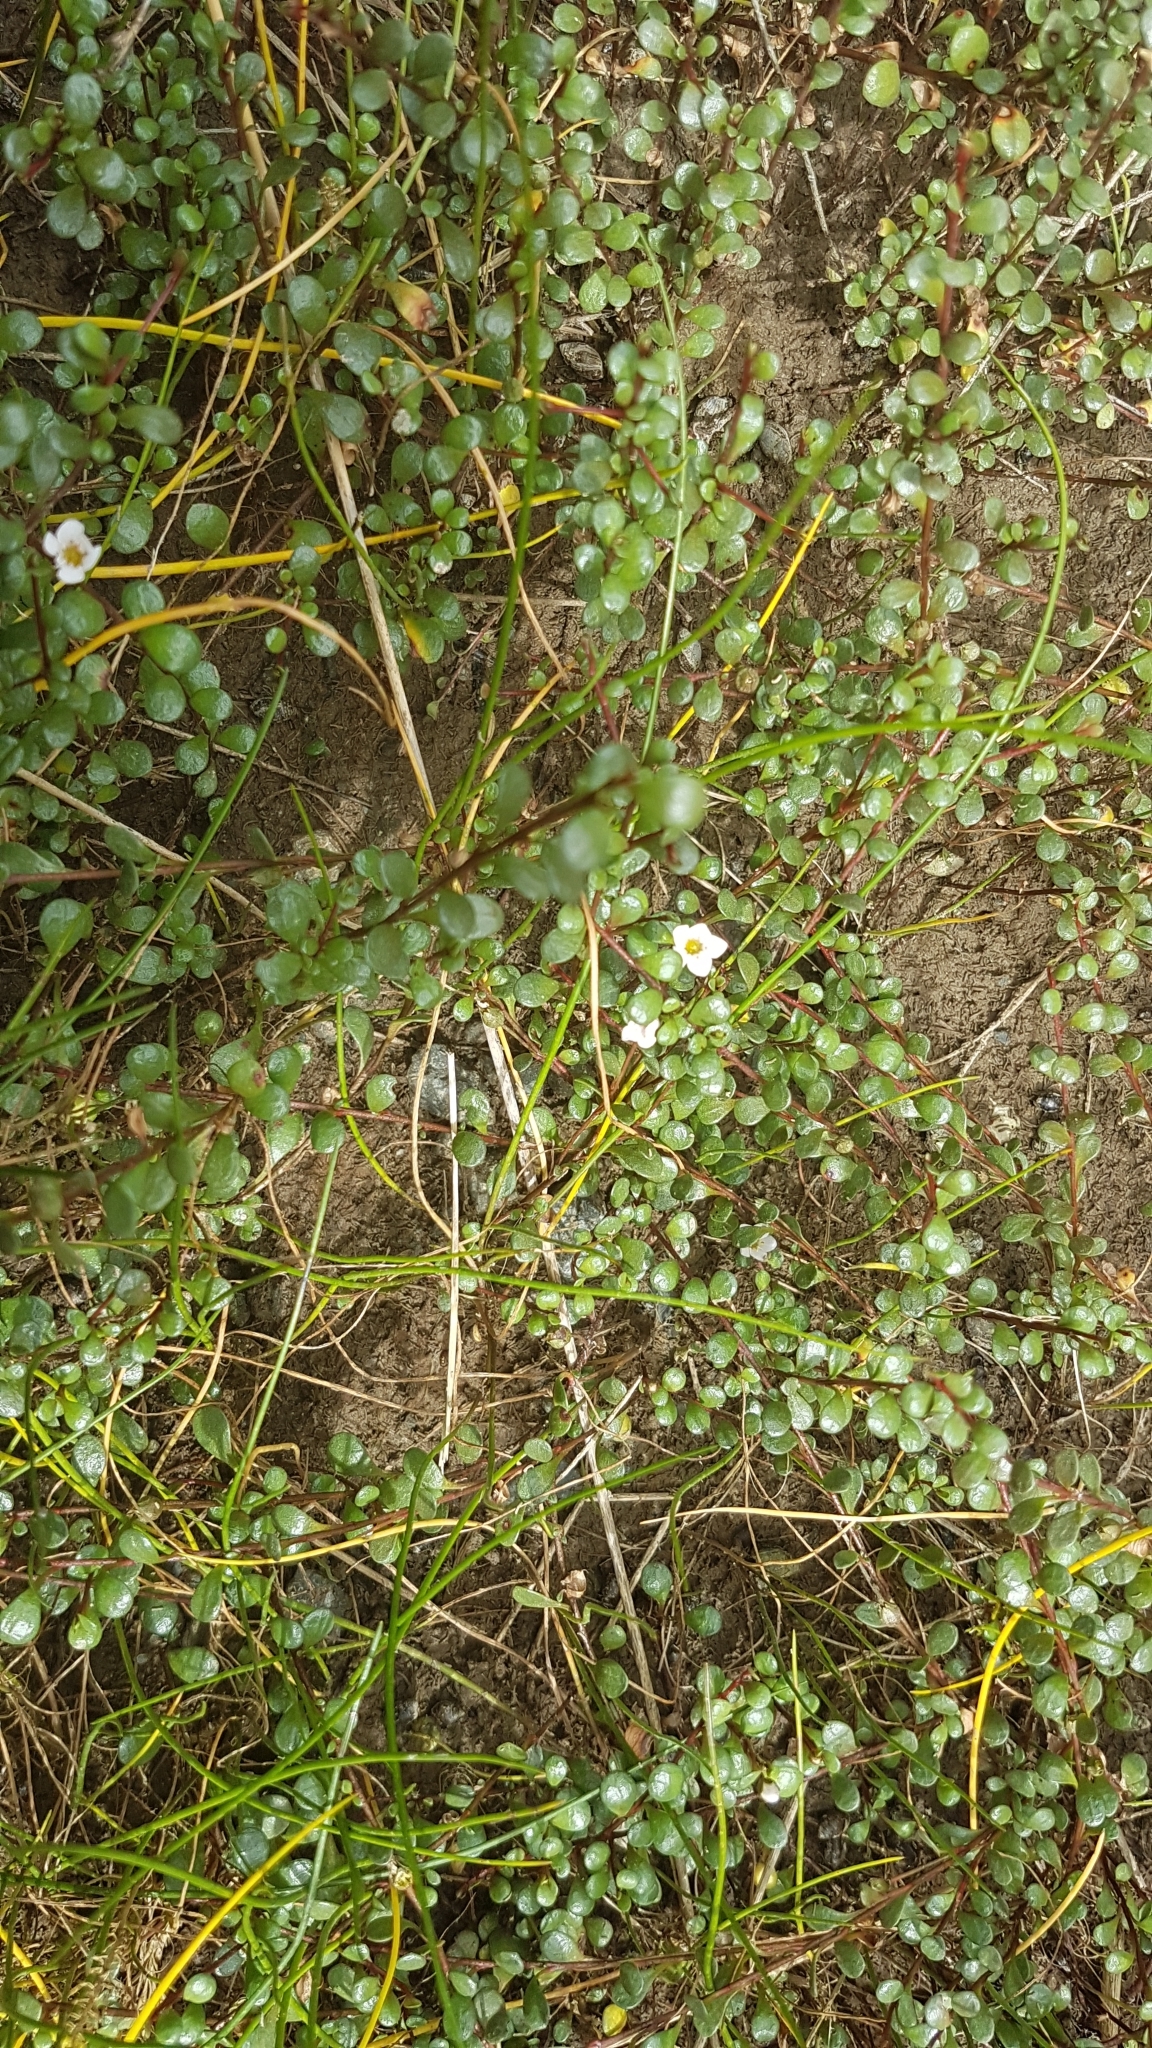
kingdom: Plantae
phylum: Tracheophyta
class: Magnoliopsida
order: Ericales
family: Primulaceae
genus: Samolus
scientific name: Samolus repens
